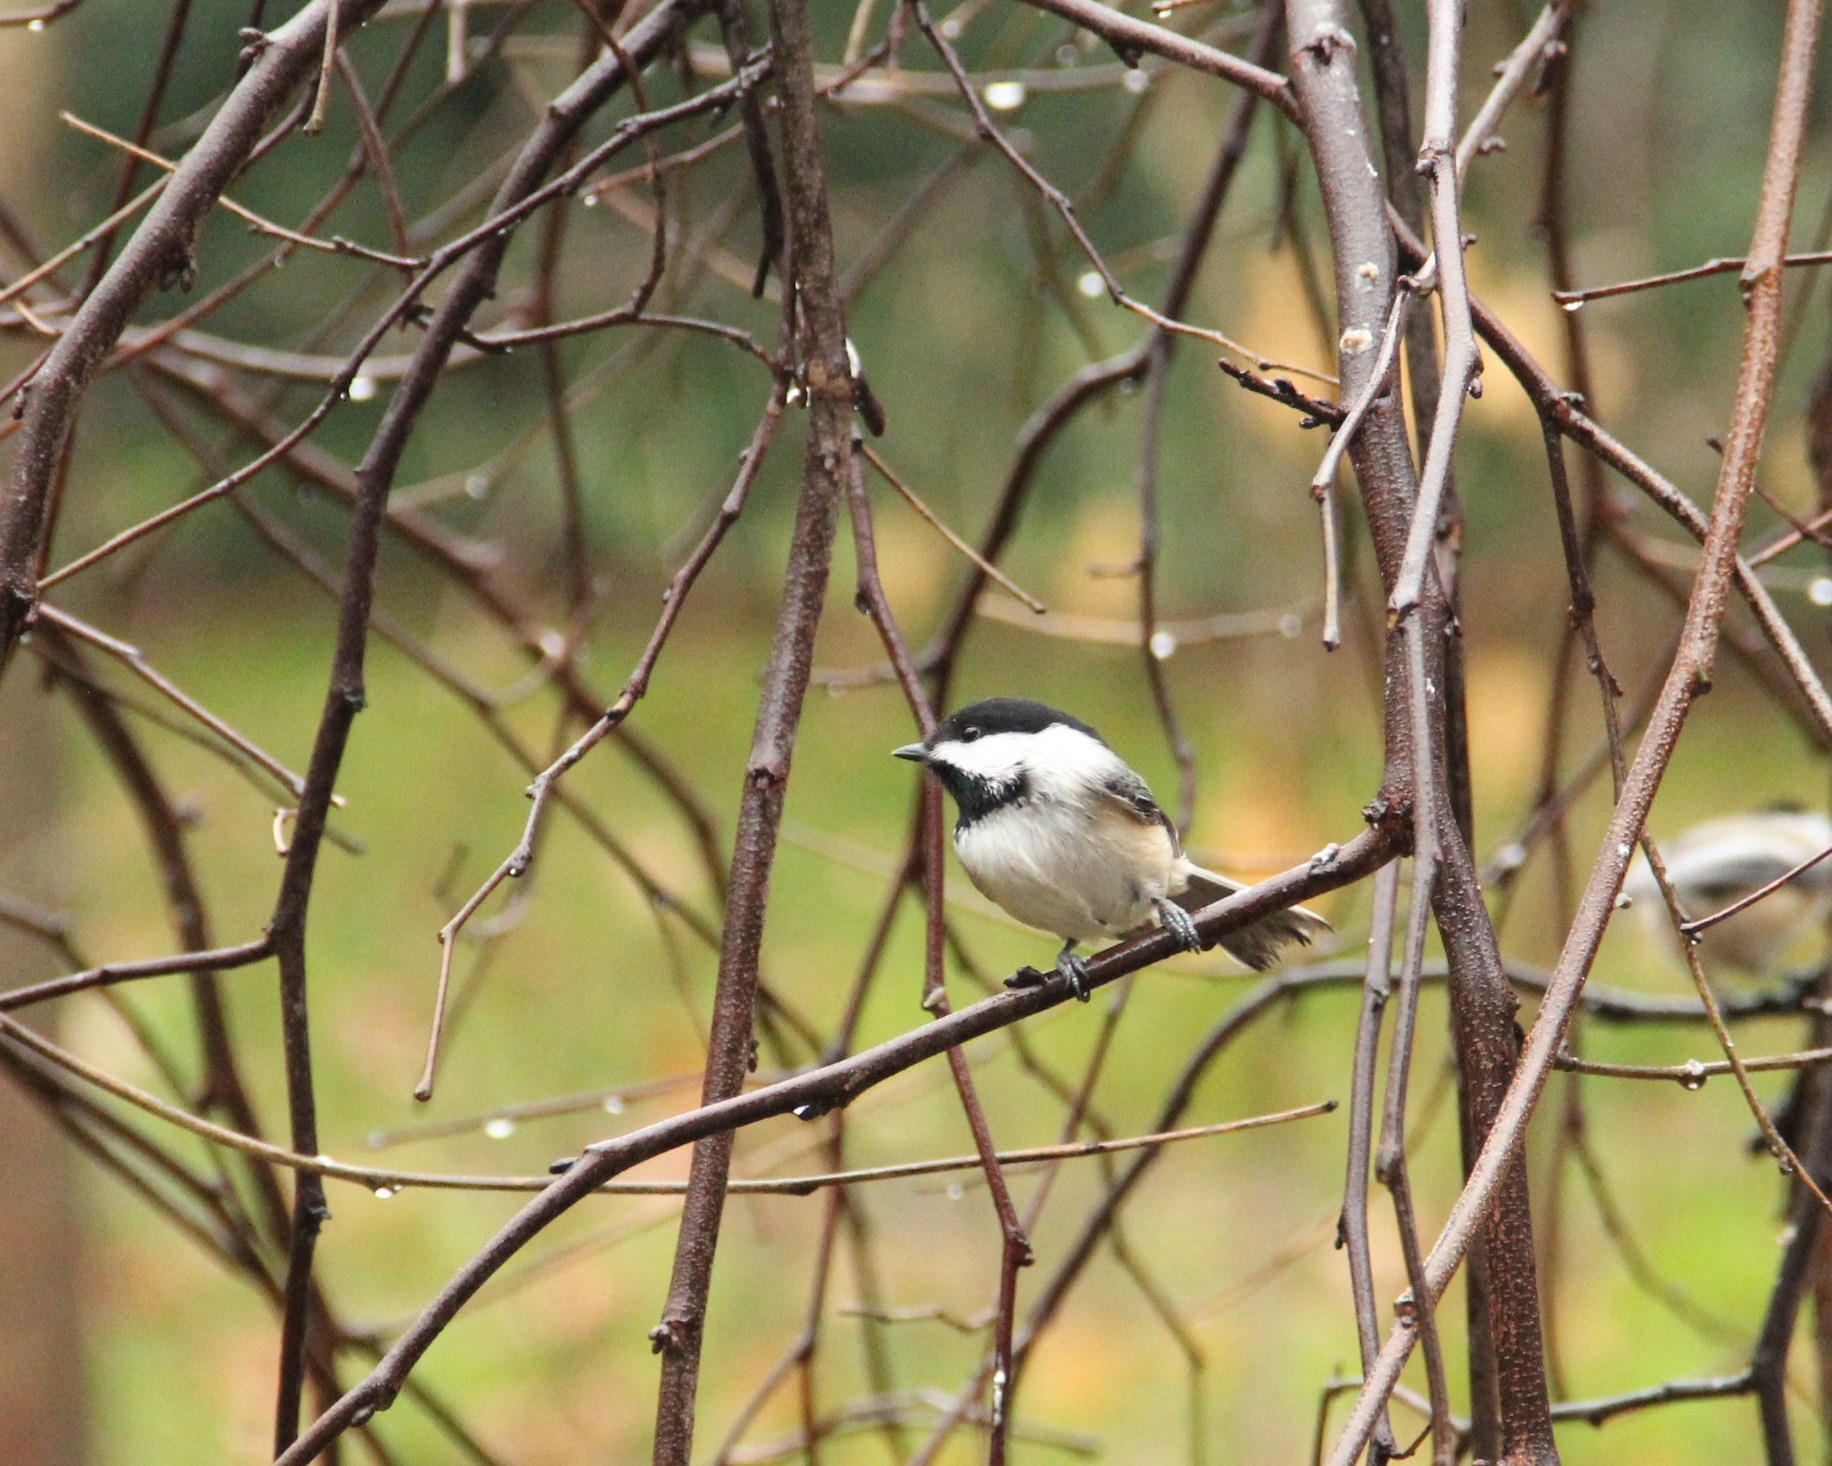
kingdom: Animalia
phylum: Chordata
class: Aves
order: Passeriformes
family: Paridae
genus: Poecile
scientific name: Poecile atricapillus
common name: Black-capped chickadee
